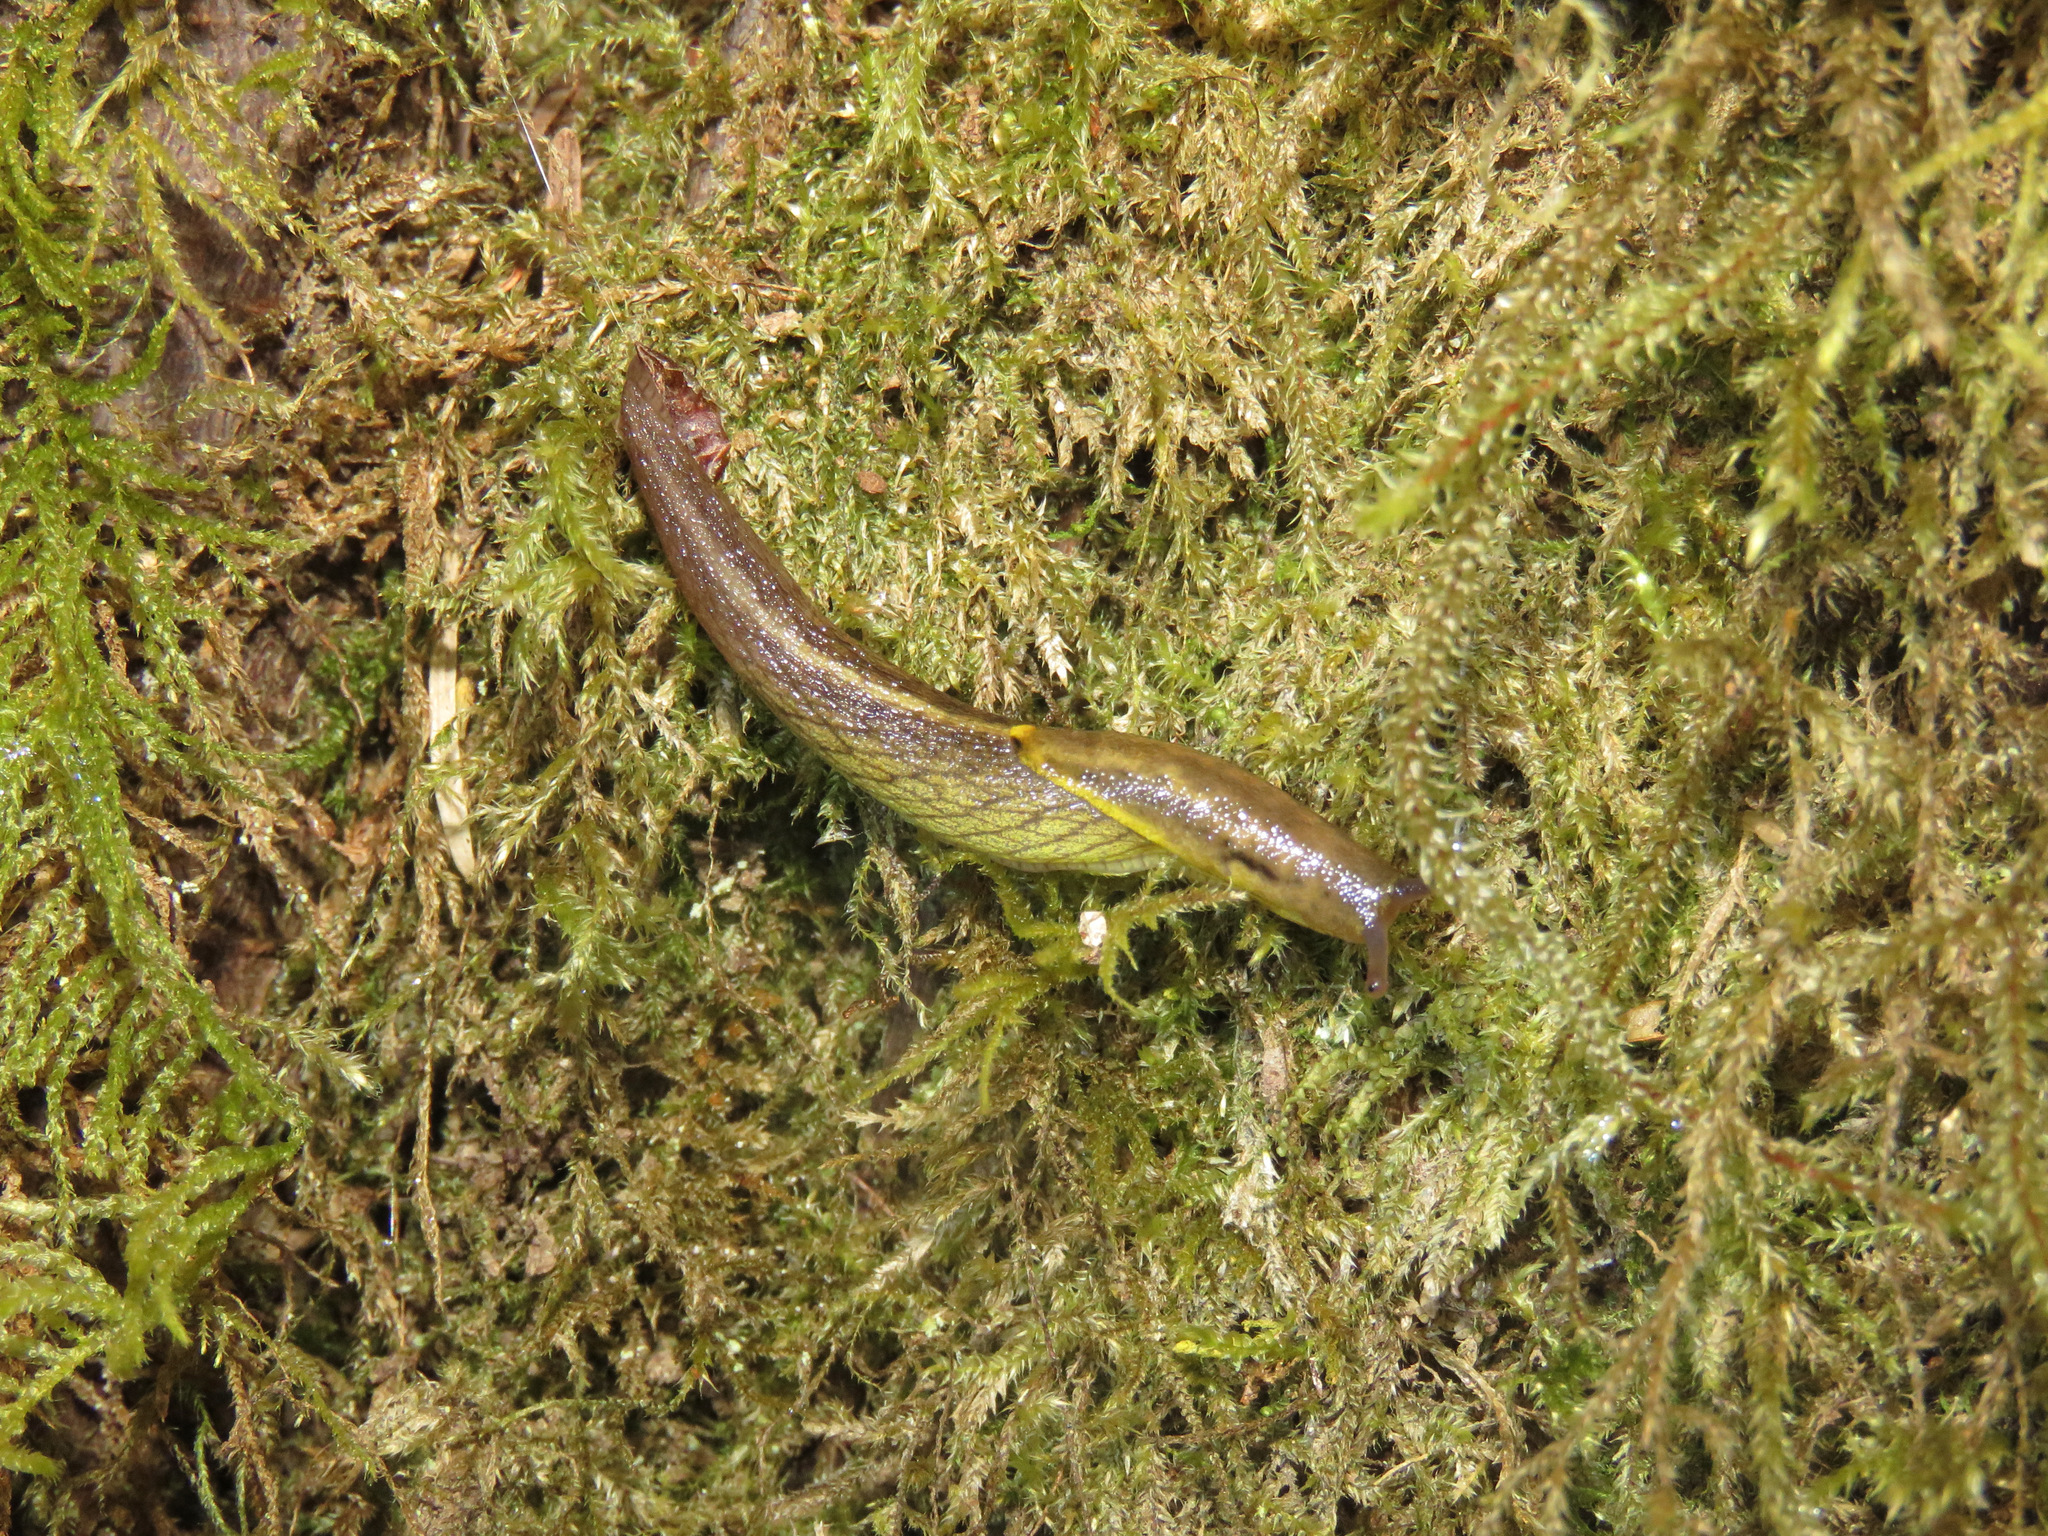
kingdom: Animalia
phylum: Mollusca
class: Gastropoda
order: Stylommatophora
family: Ariolimacidae
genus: Prophysaon
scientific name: Prophysaon foliolatum
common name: Yellow-bordered taildropper
